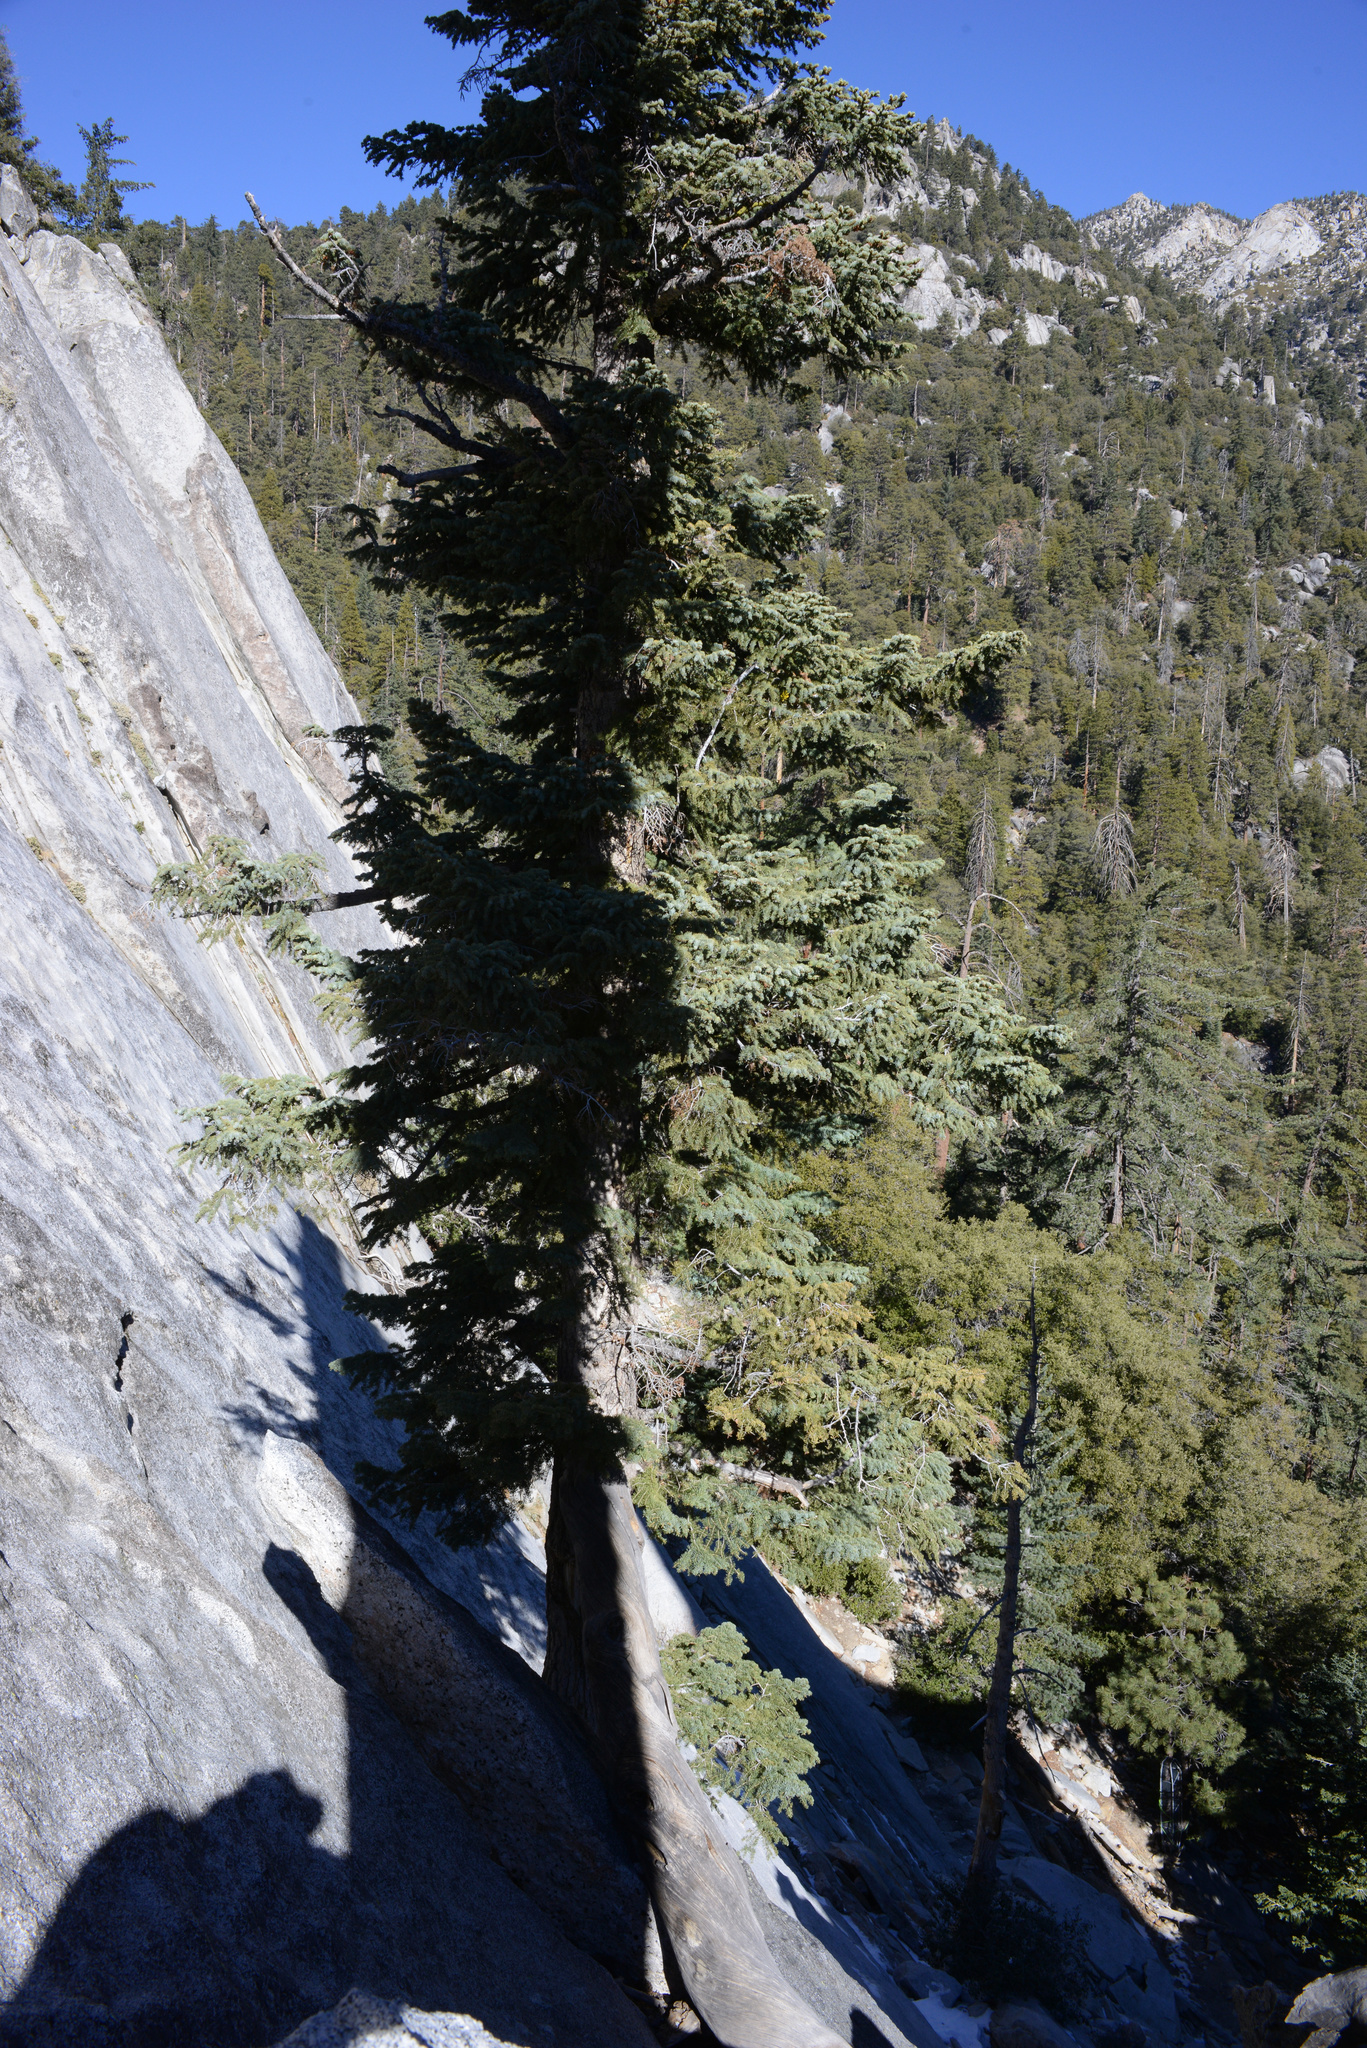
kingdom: Plantae
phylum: Tracheophyta
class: Pinopsida
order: Pinales
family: Pinaceae
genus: Abies
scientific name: Abies concolor
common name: Colorado fir
